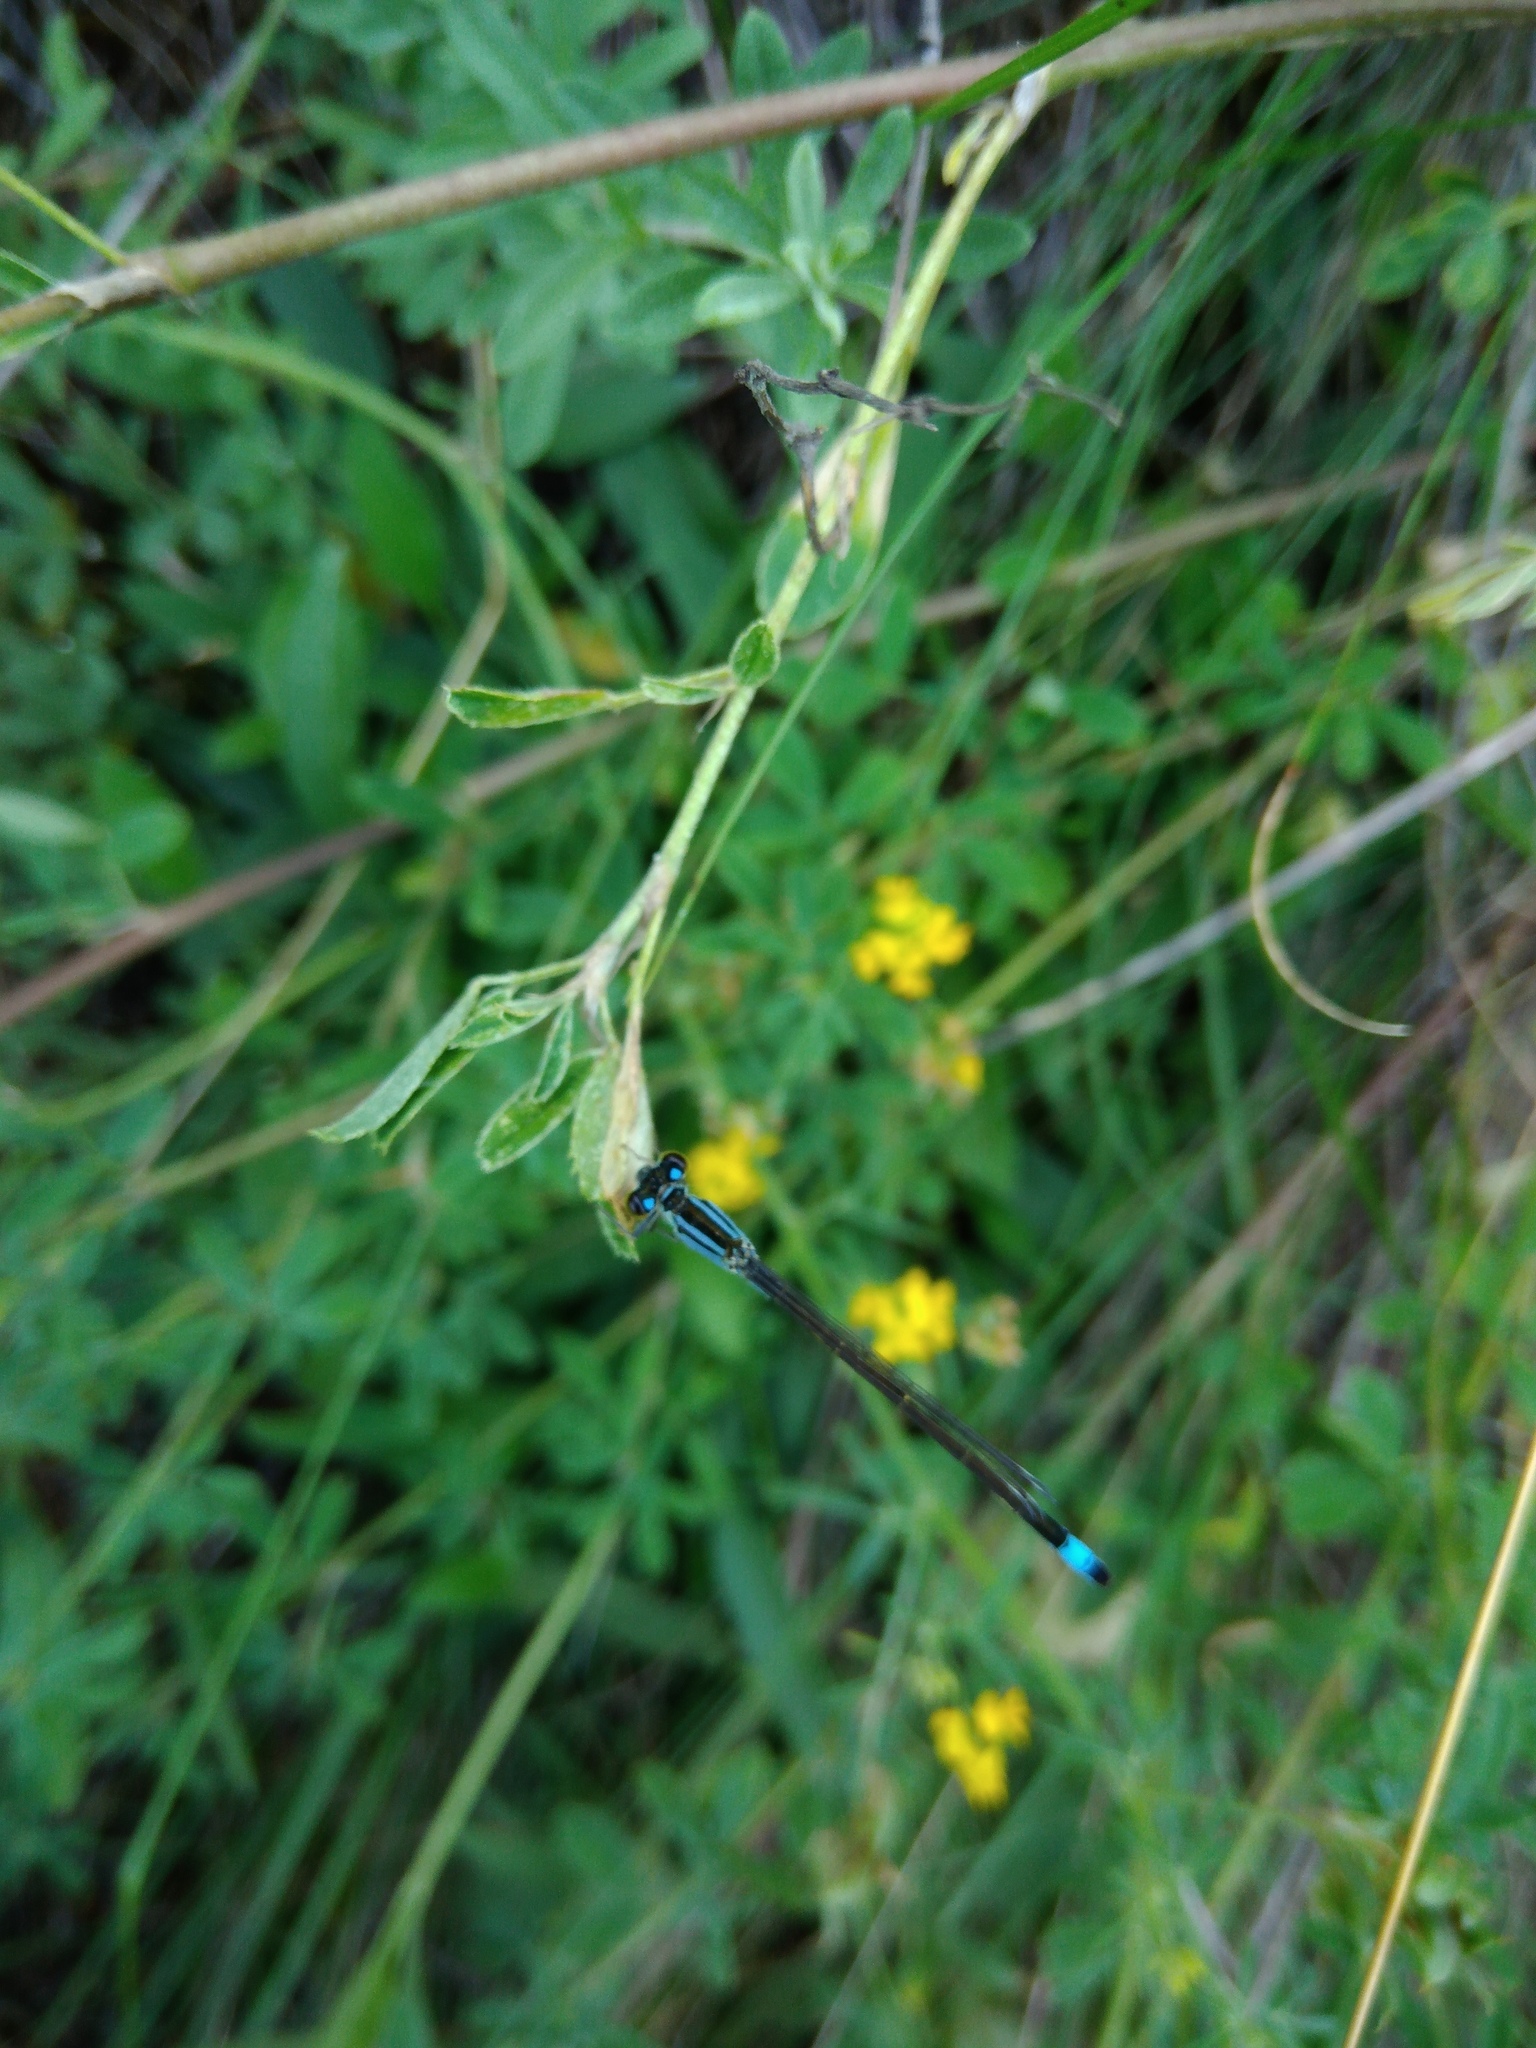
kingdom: Animalia
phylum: Arthropoda
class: Insecta
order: Odonata
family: Coenagrionidae
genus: Ischnura
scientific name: Ischnura elegans
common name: Blue-tailed damselfly
